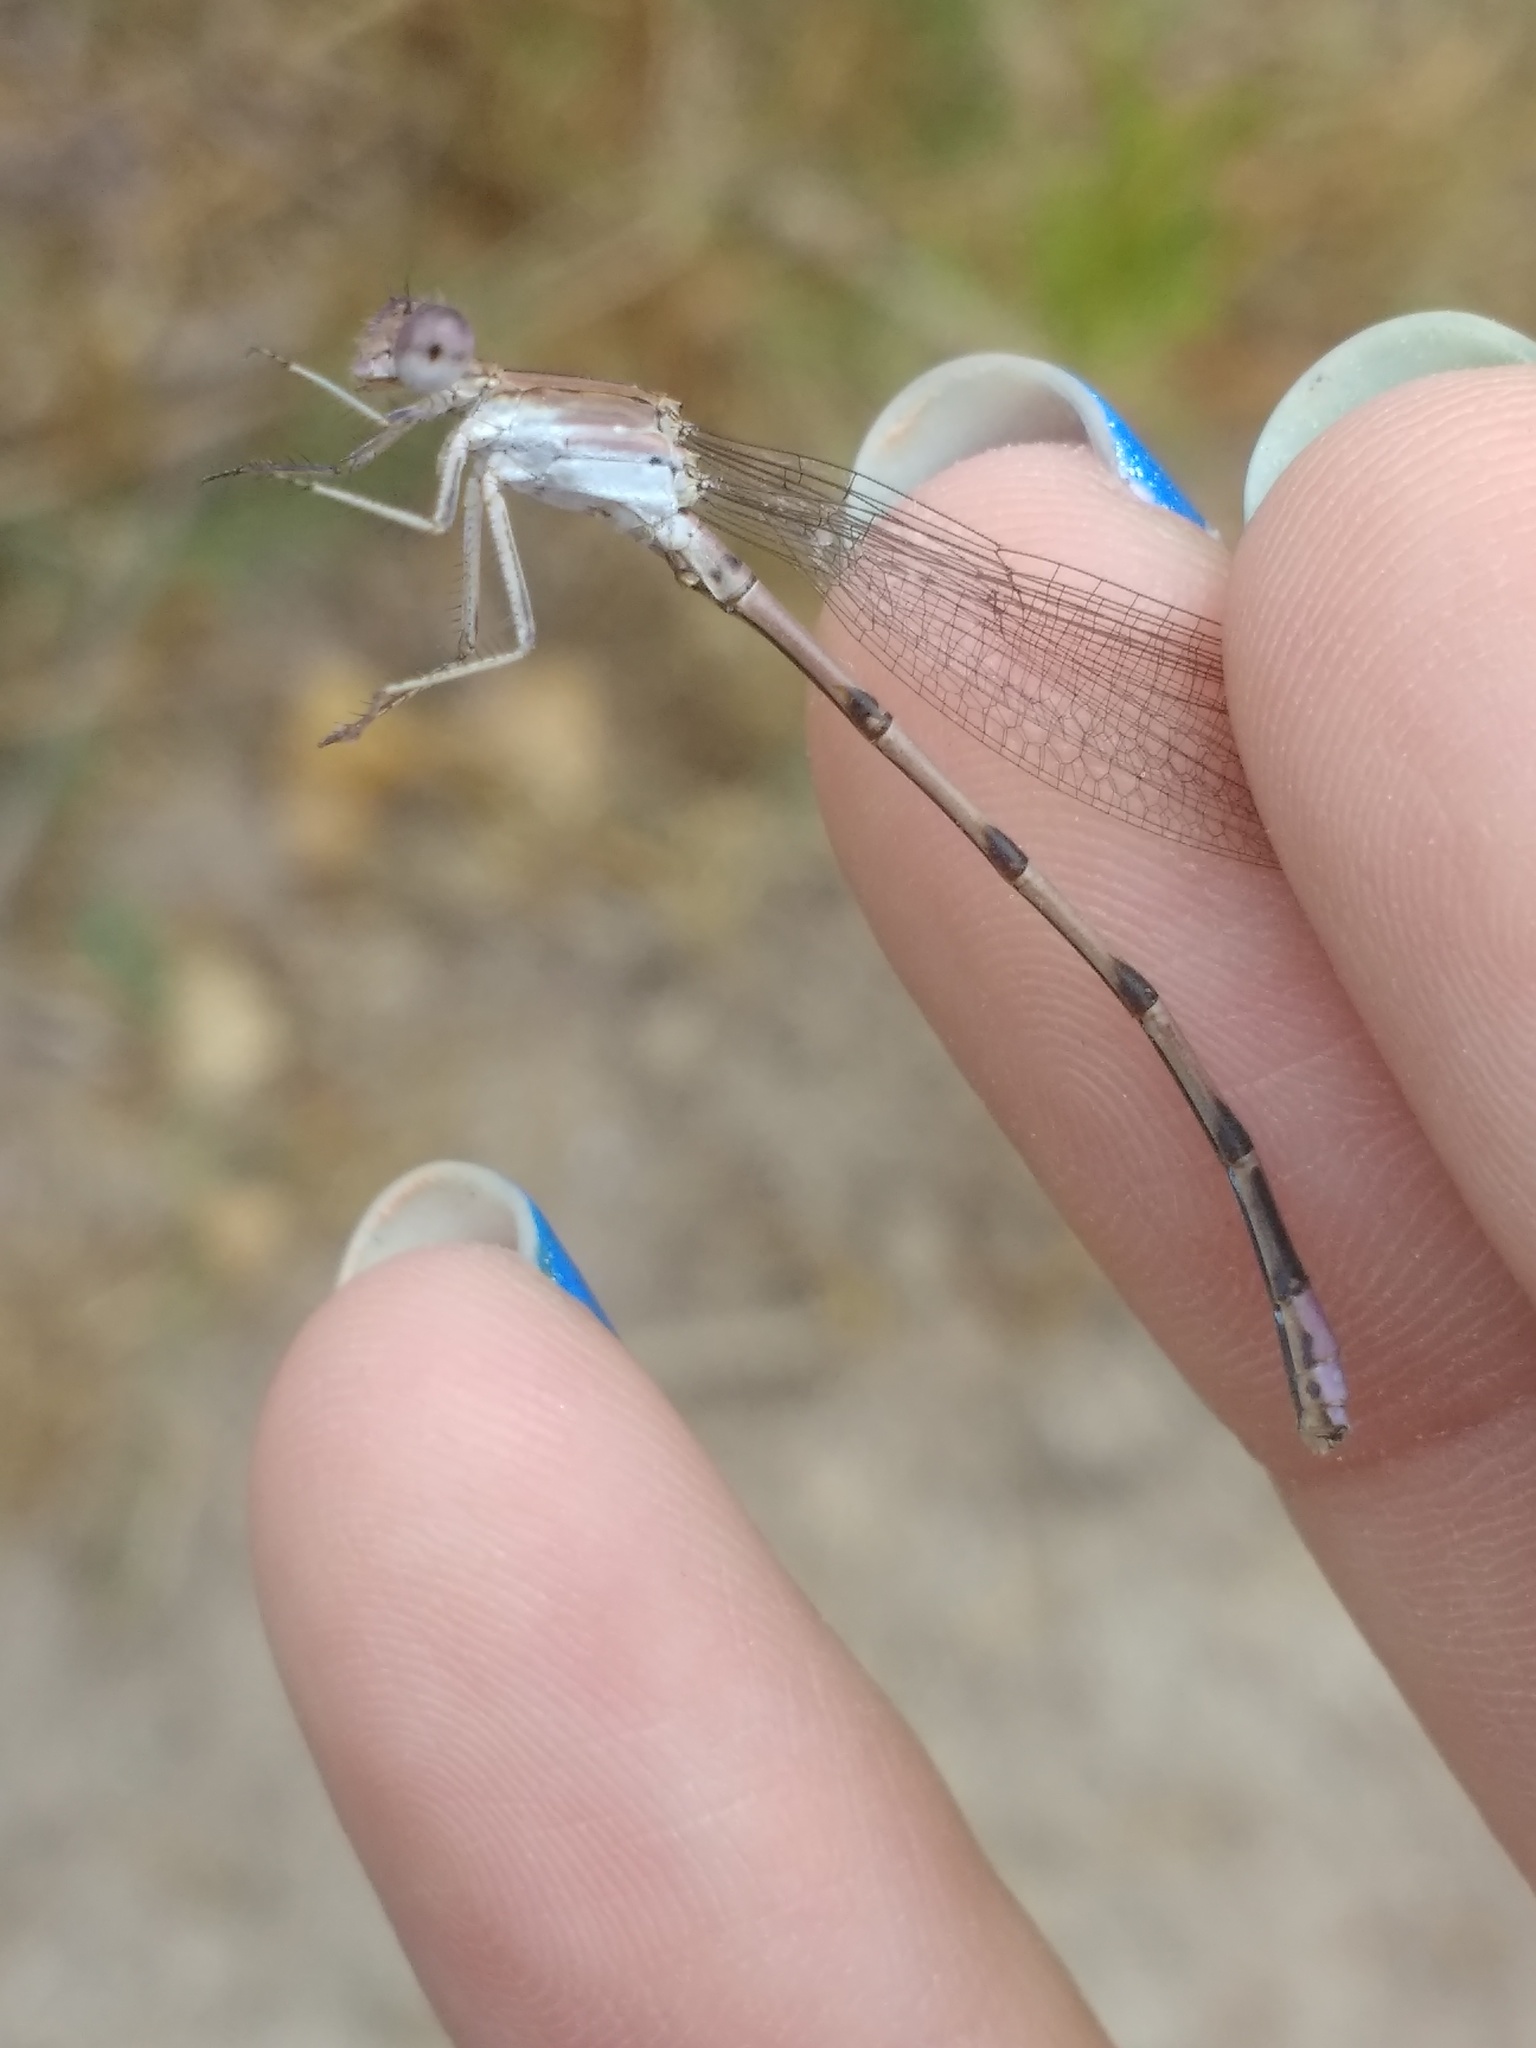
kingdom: Animalia
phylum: Arthropoda
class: Insecta
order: Odonata
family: Coenagrionidae
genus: Argia
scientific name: Argia pallens
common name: Amethyst dancer
